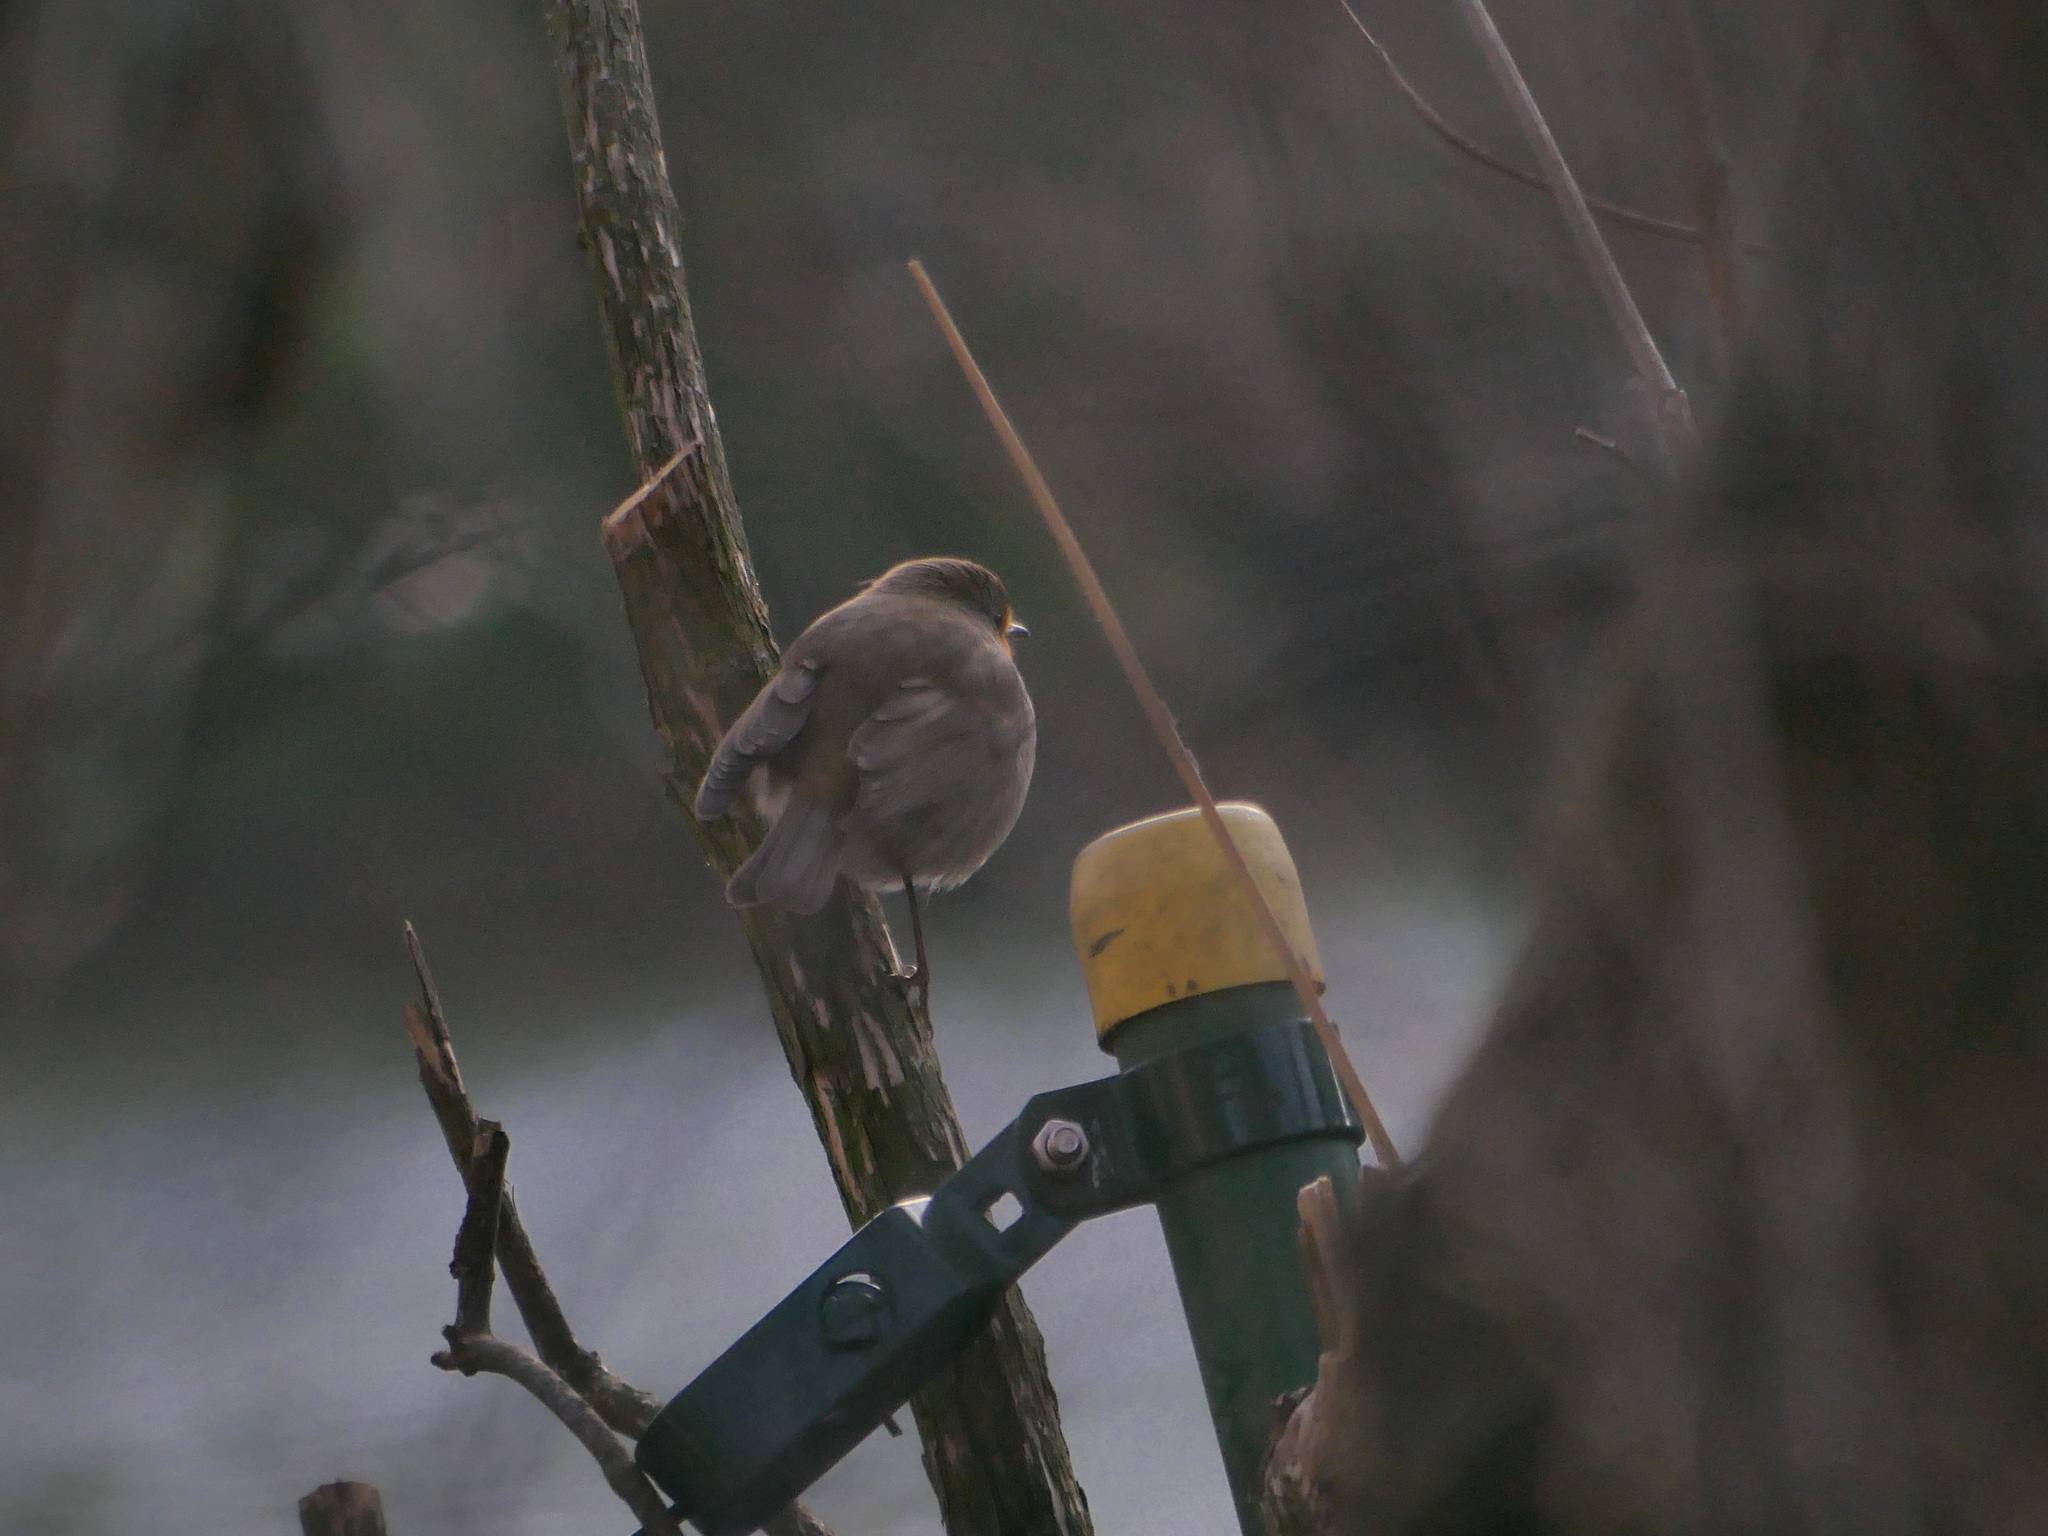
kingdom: Animalia
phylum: Chordata
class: Aves
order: Passeriformes
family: Muscicapidae
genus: Erithacus
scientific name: Erithacus rubecula
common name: European robin
